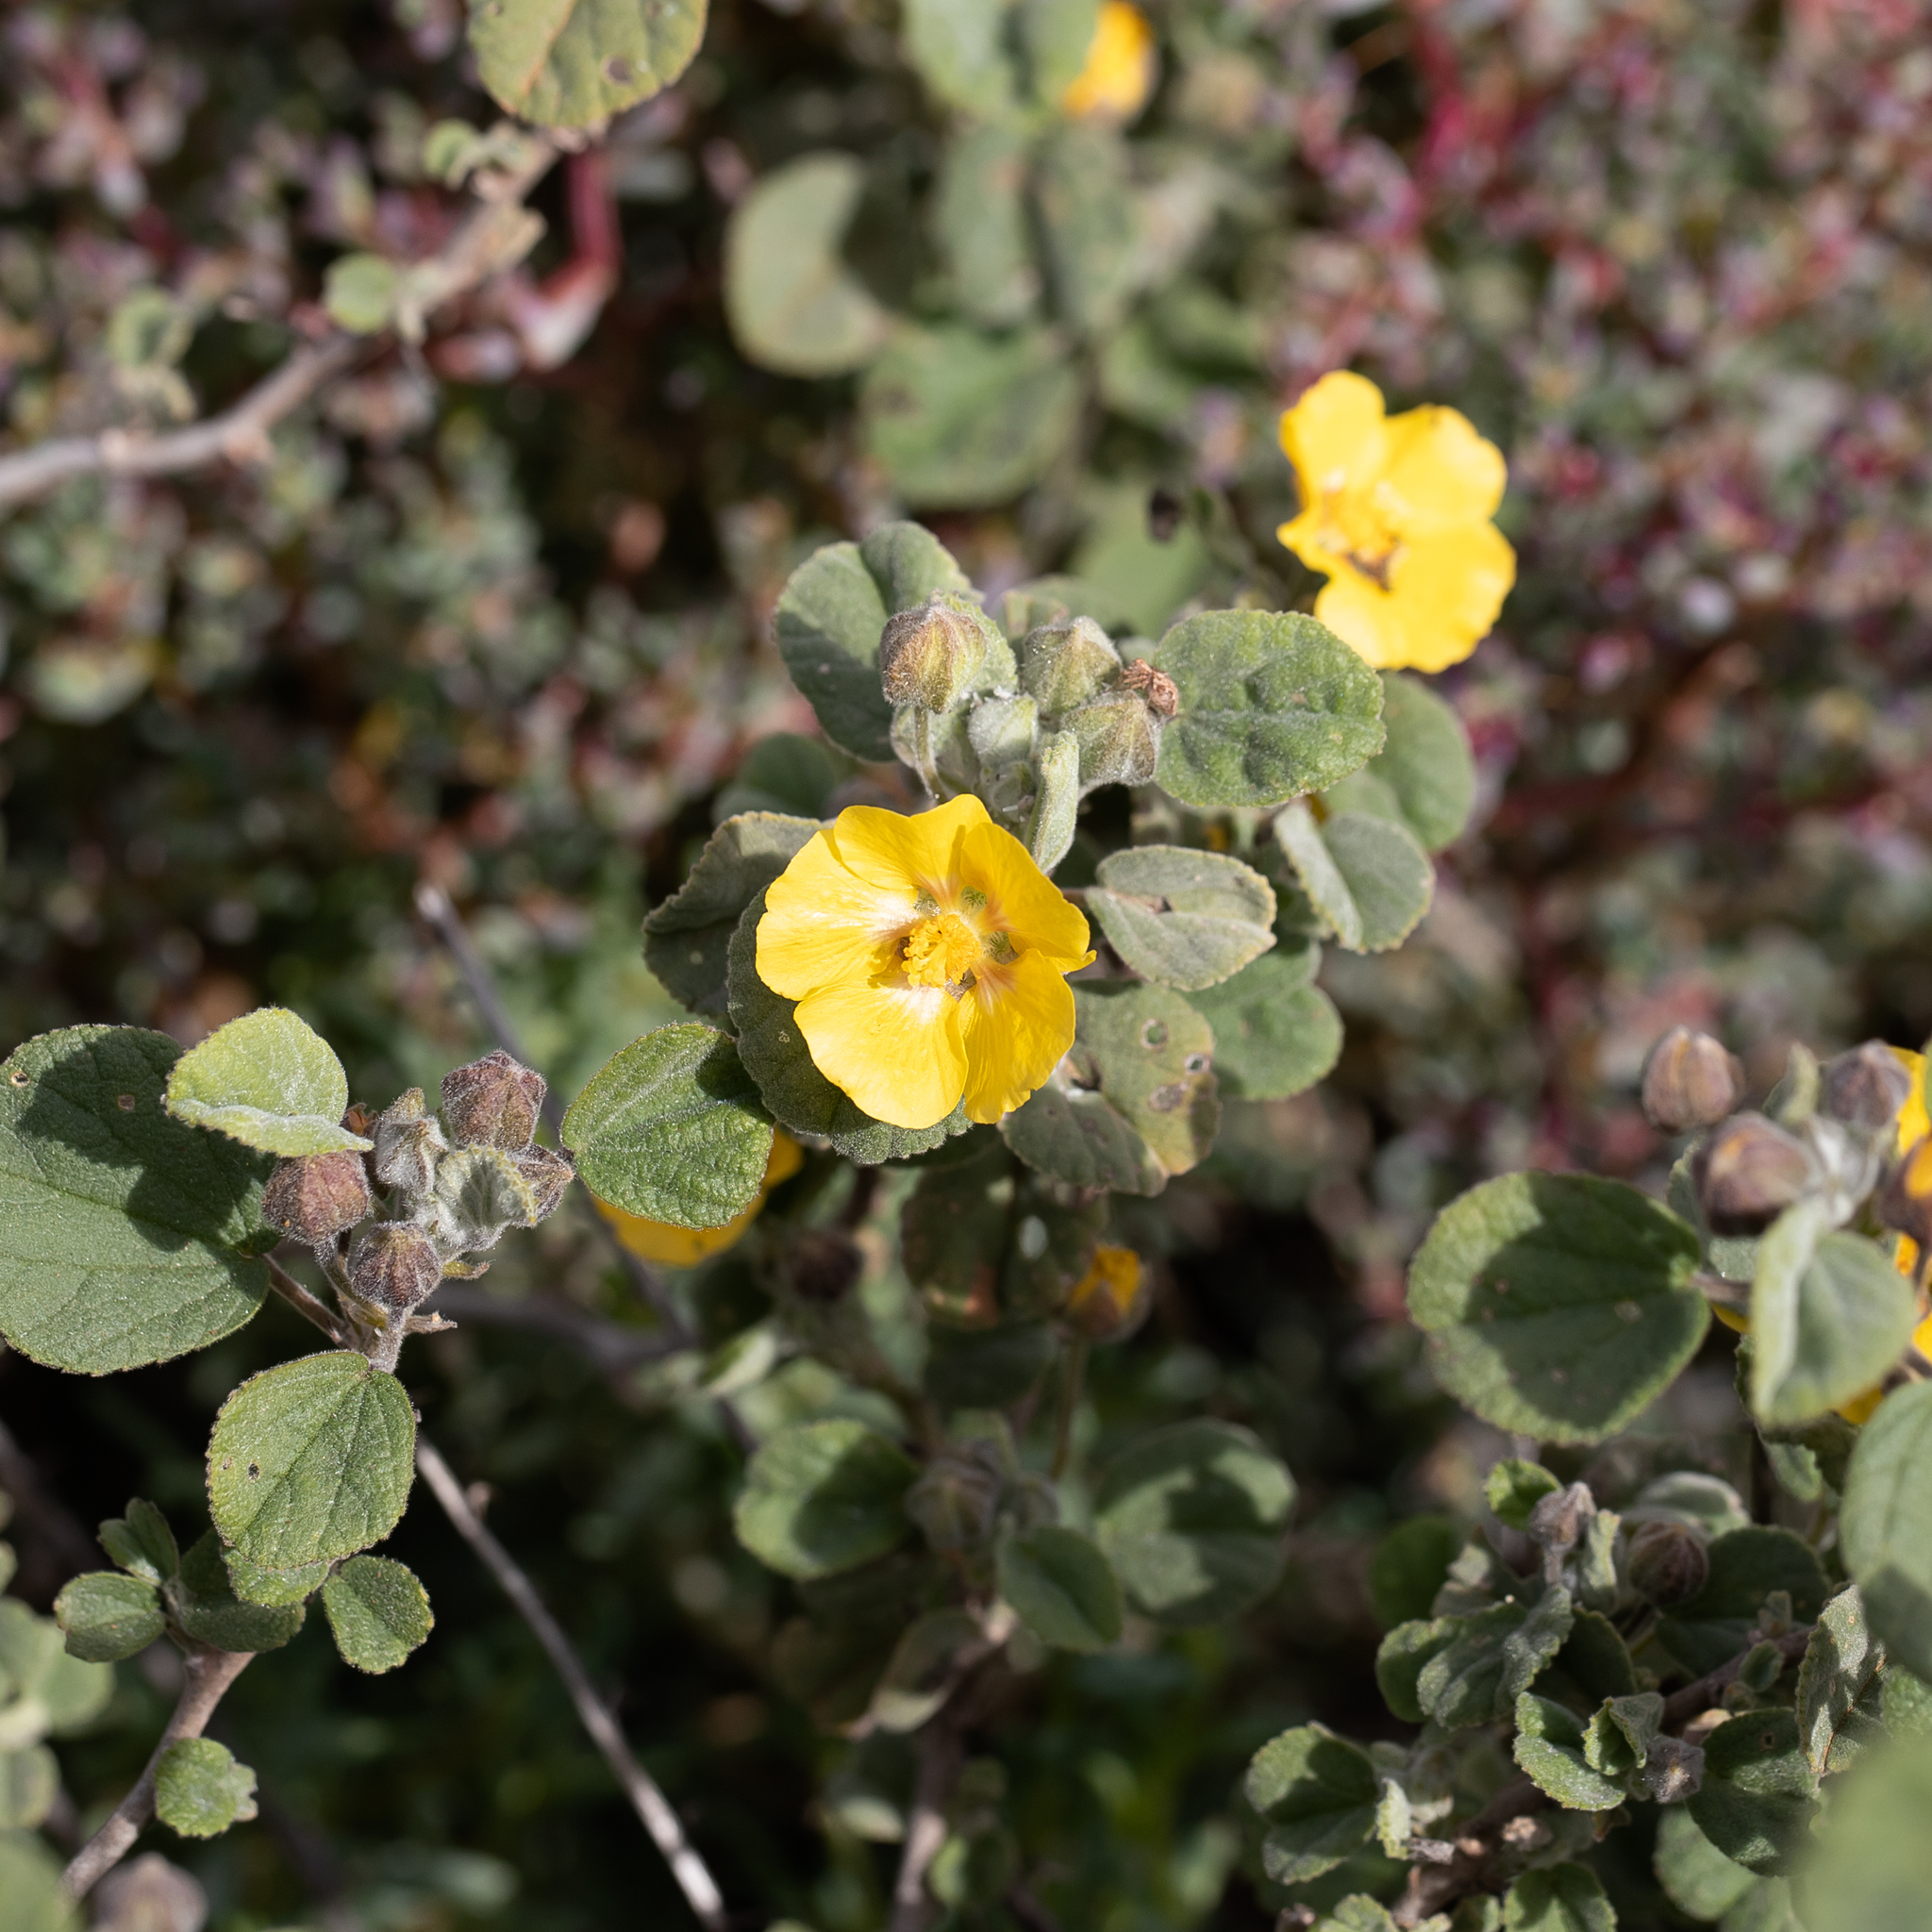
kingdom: Plantae
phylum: Tracheophyta
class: Magnoliopsida
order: Malvales
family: Malvaceae
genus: Sida
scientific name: Sida corrugata
